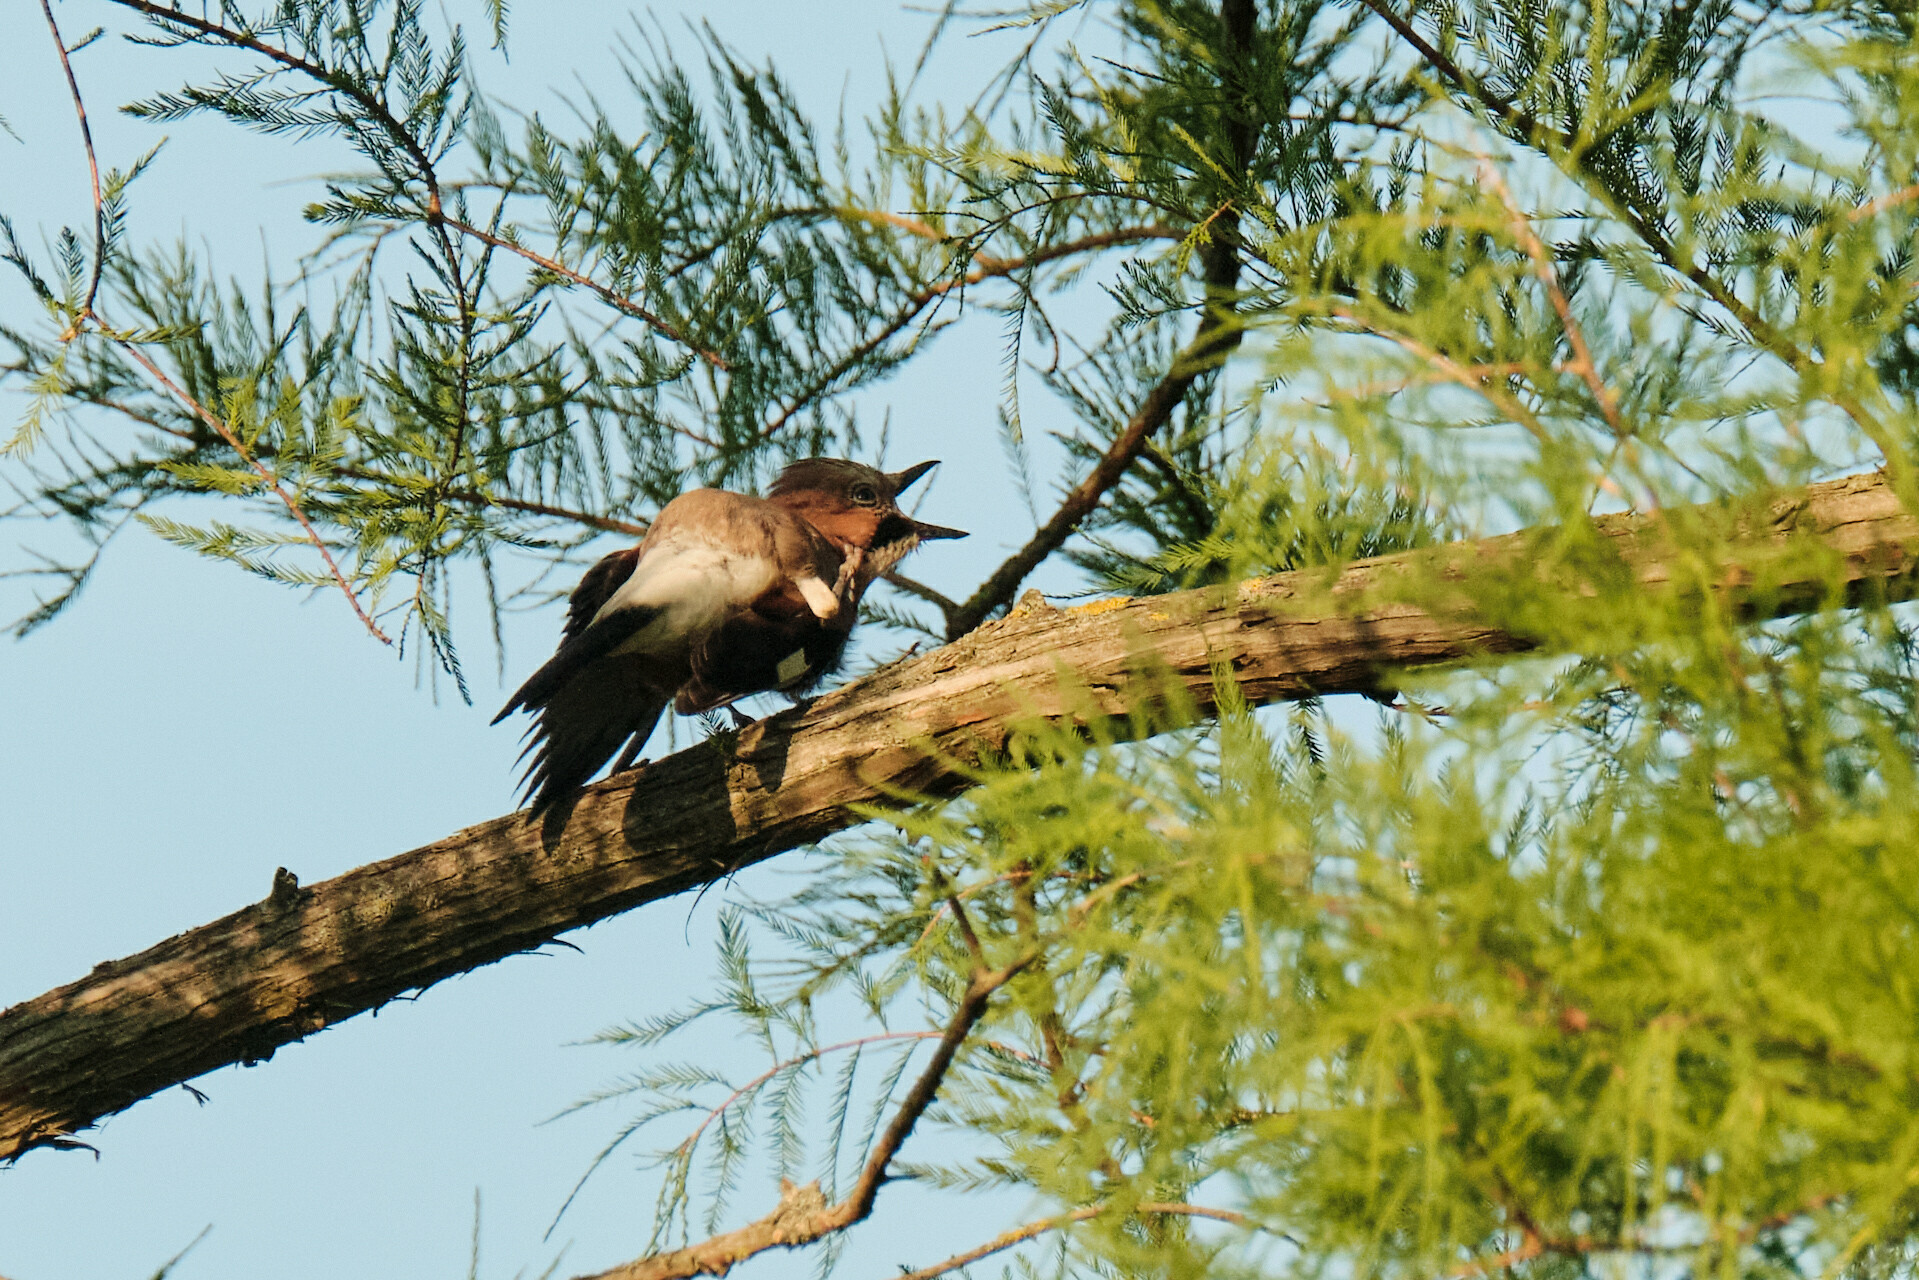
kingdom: Animalia
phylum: Chordata
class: Aves
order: Passeriformes
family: Corvidae
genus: Garrulus
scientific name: Garrulus glandarius
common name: Eurasian jay
